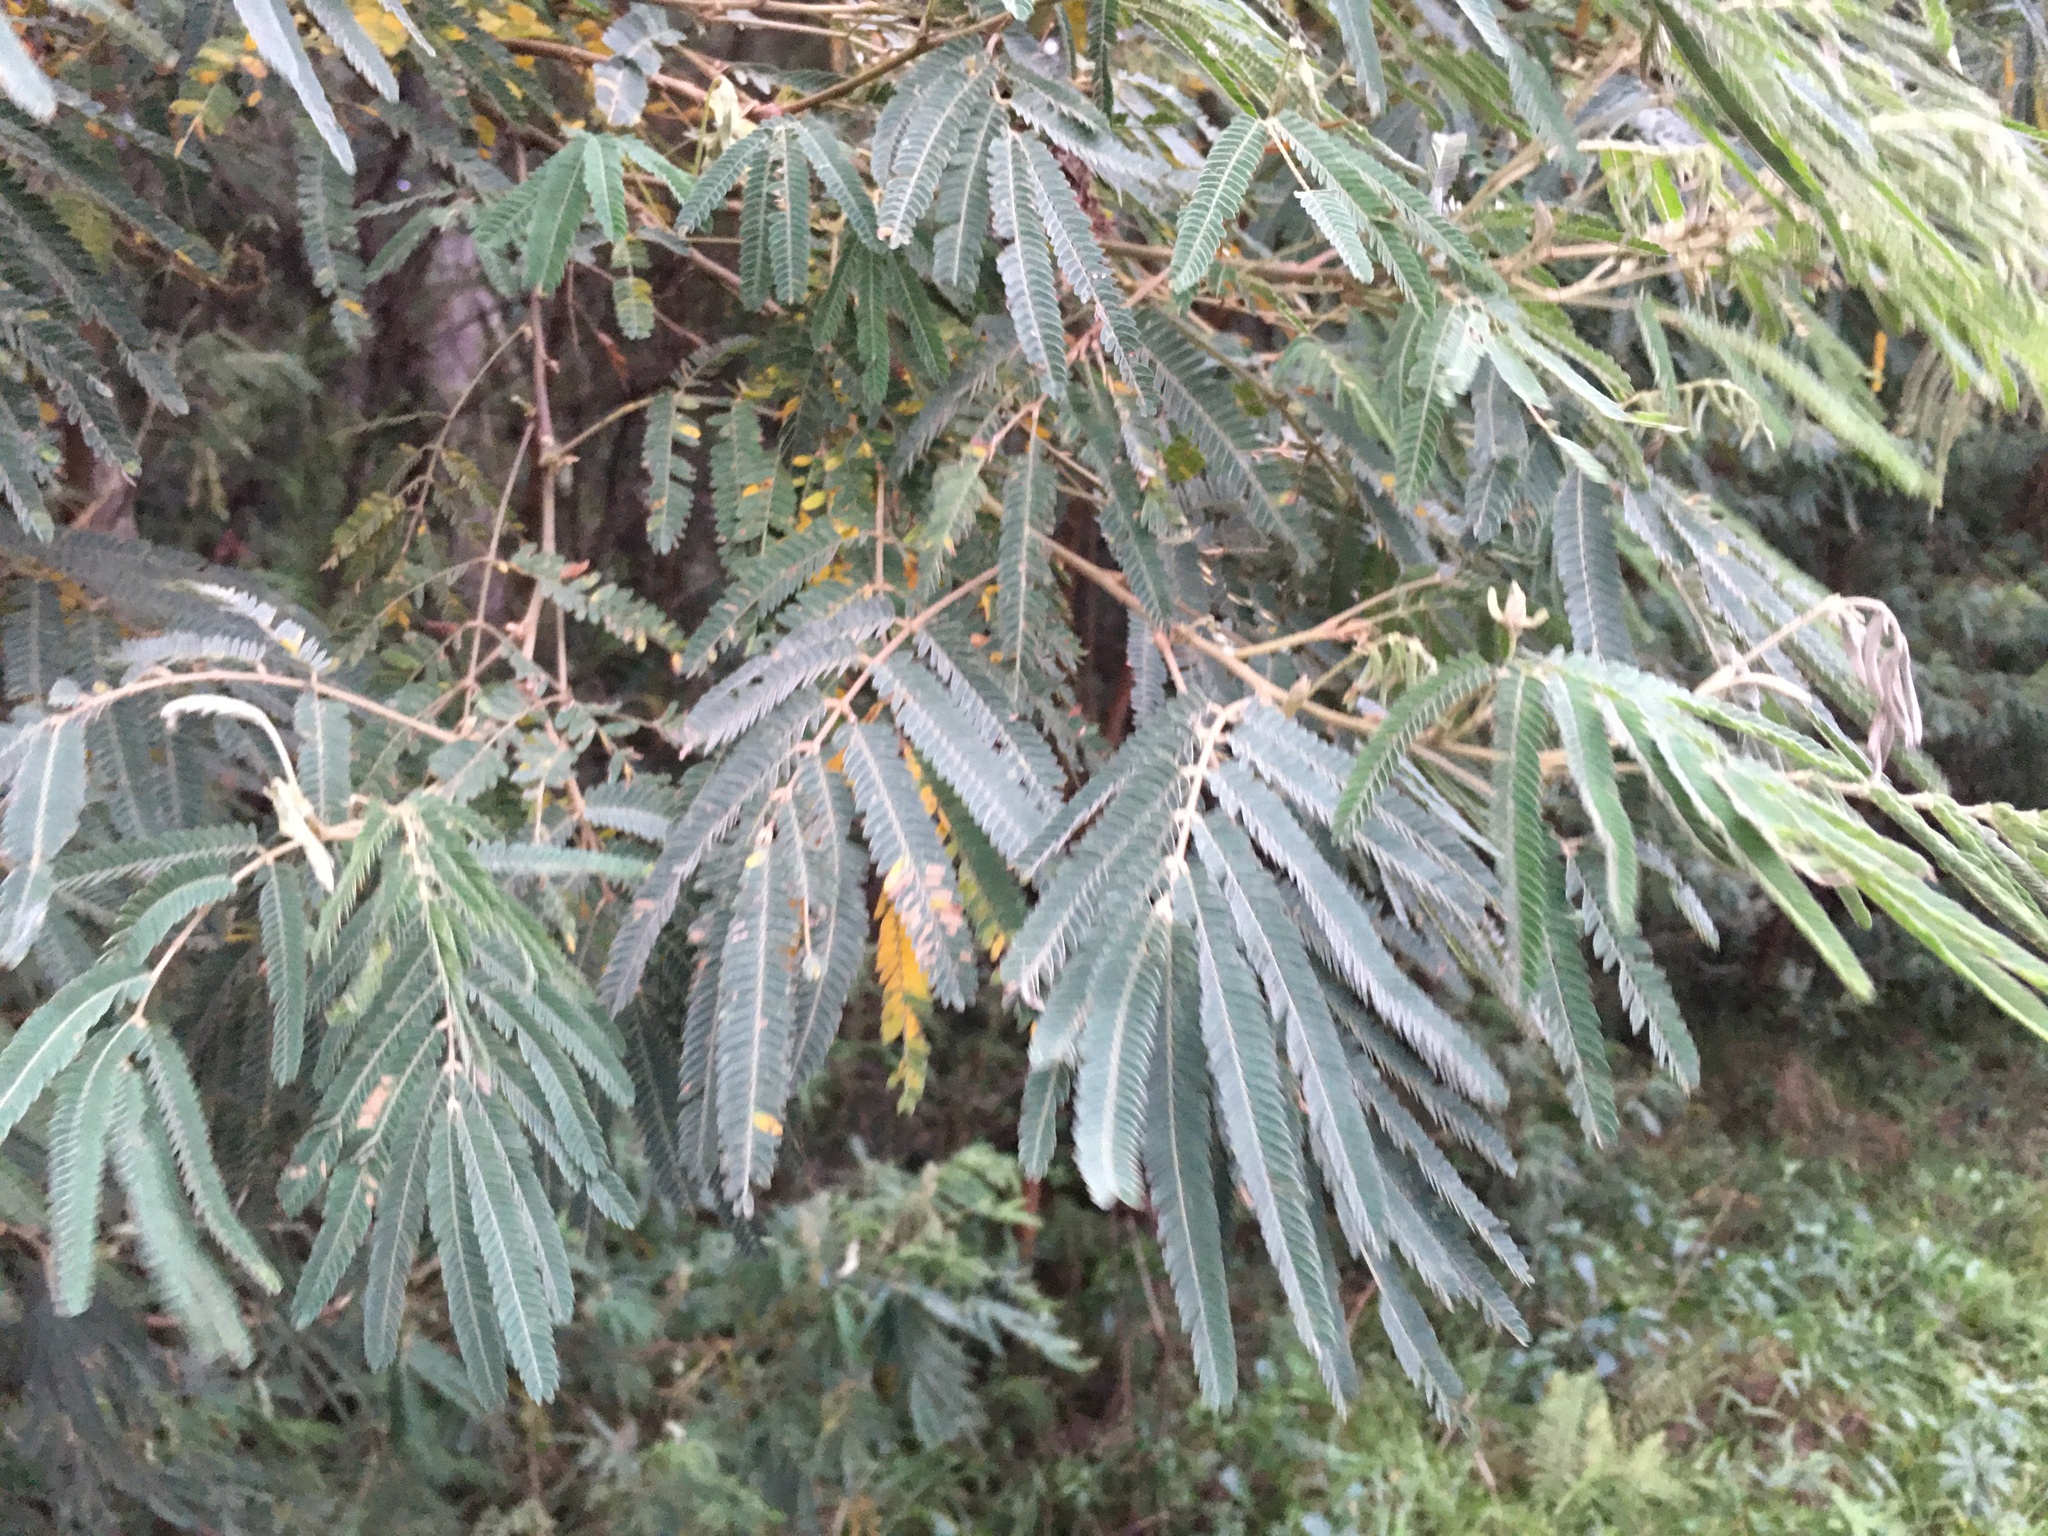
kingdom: Plantae
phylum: Tracheophyta
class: Magnoliopsida
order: Fabales
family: Fabaceae
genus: Mimosa
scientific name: Mimosa scabrella
